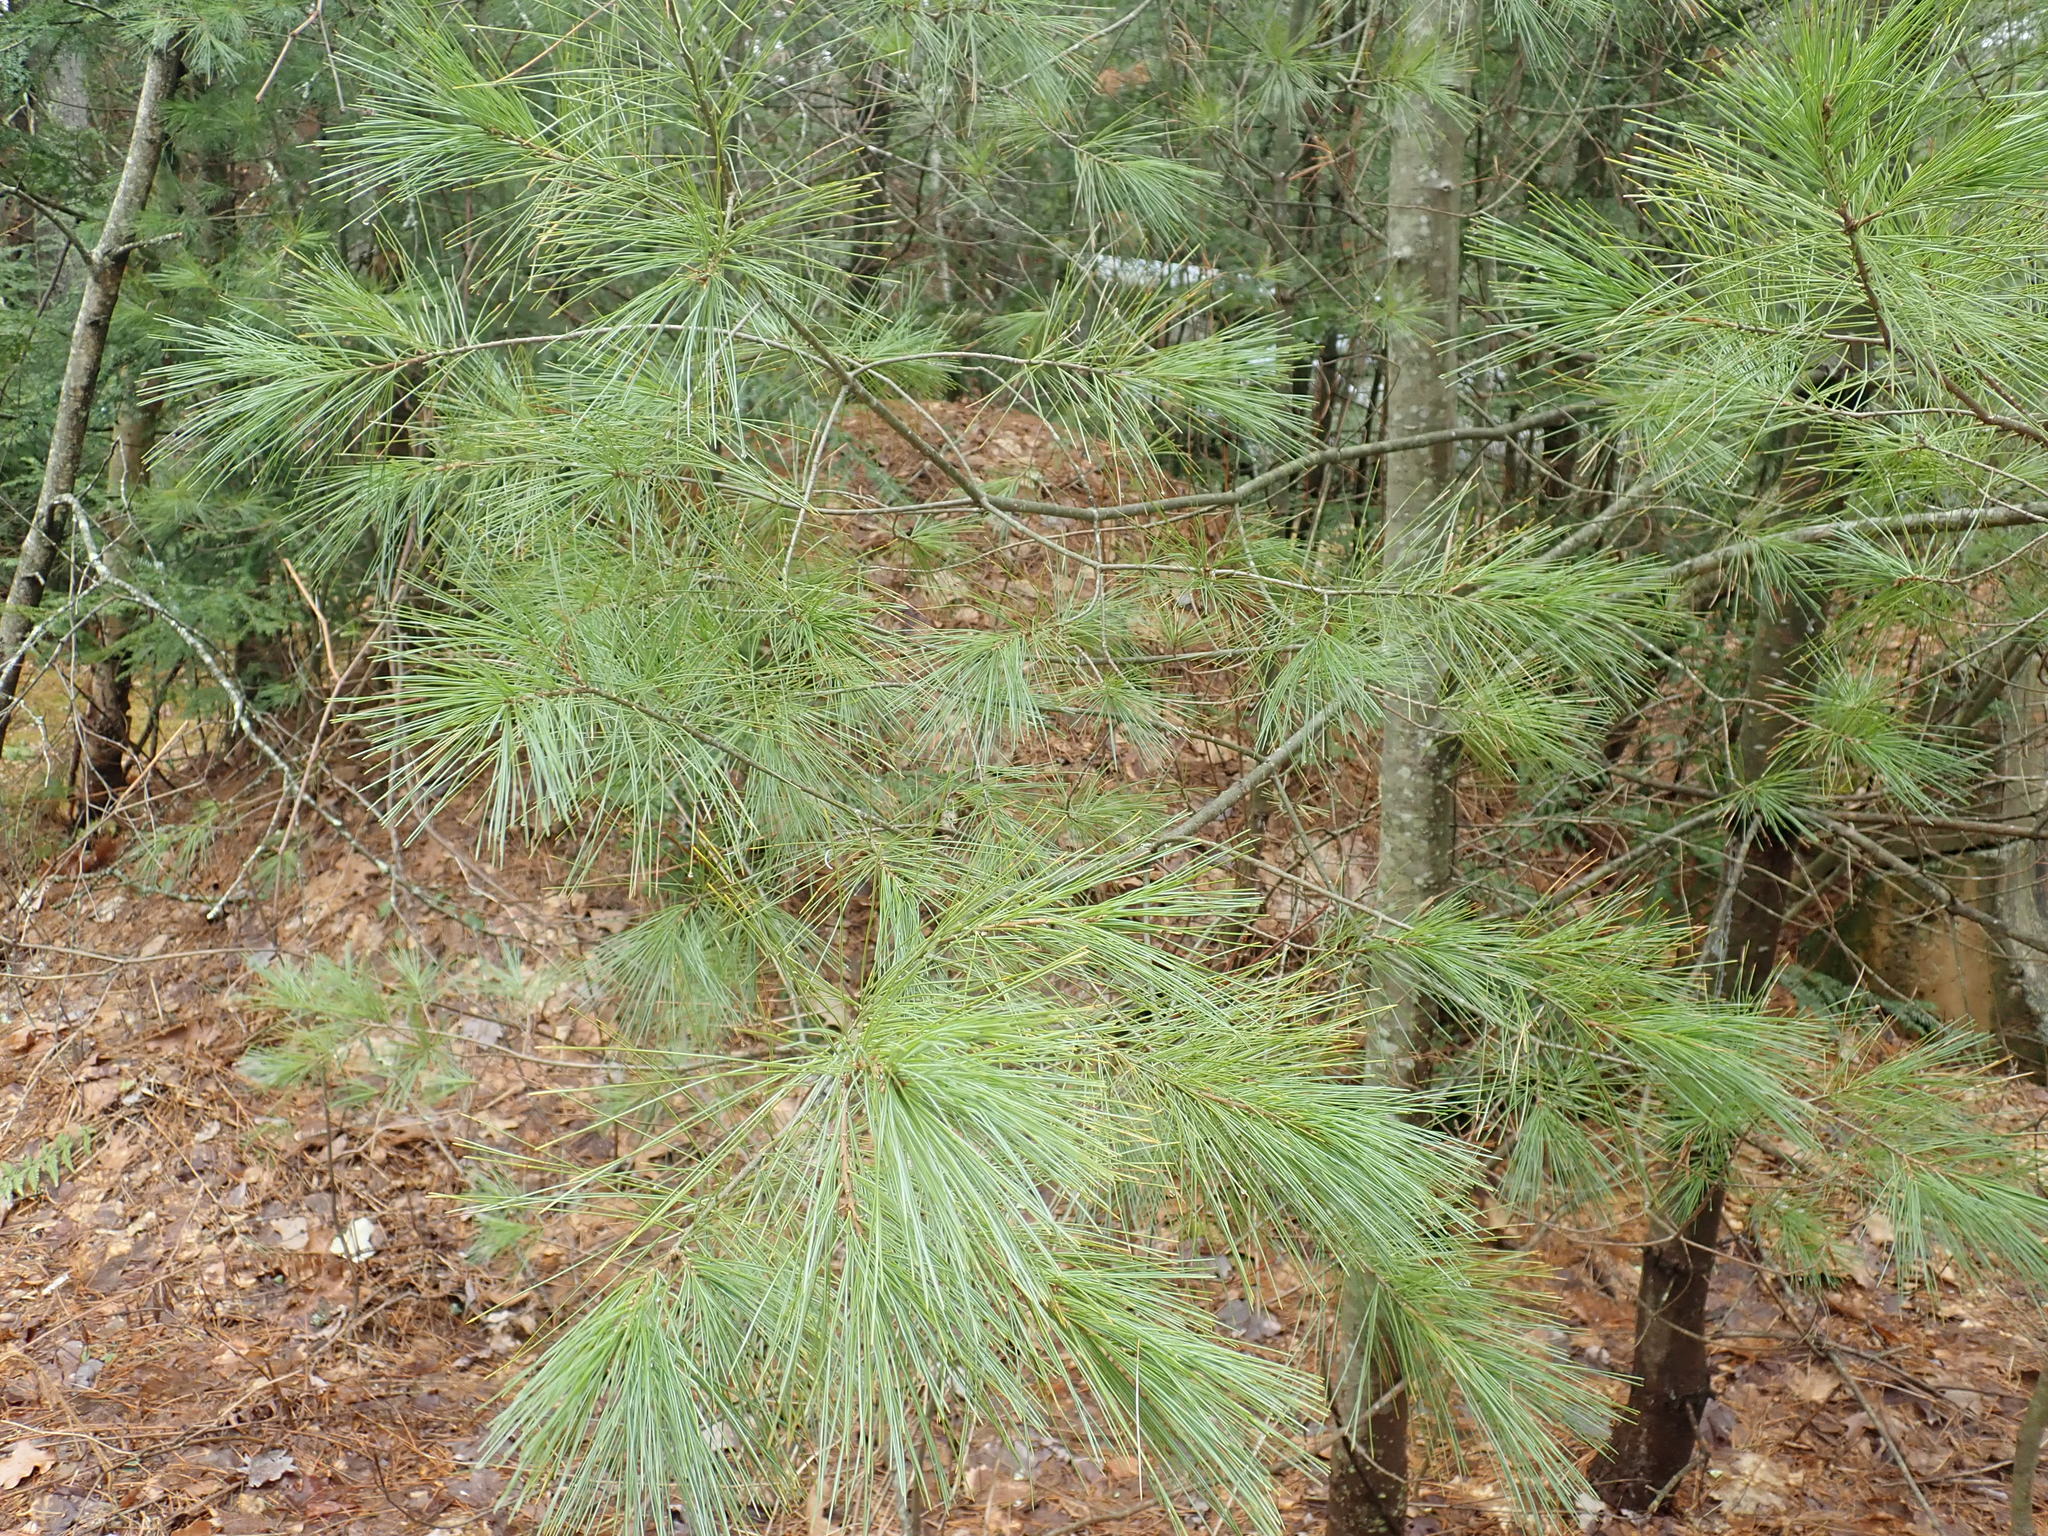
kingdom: Plantae
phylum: Tracheophyta
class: Pinopsida
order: Pinales
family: Pinaceae
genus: Pinus
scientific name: Pinus strobus
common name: Weymouth pine
